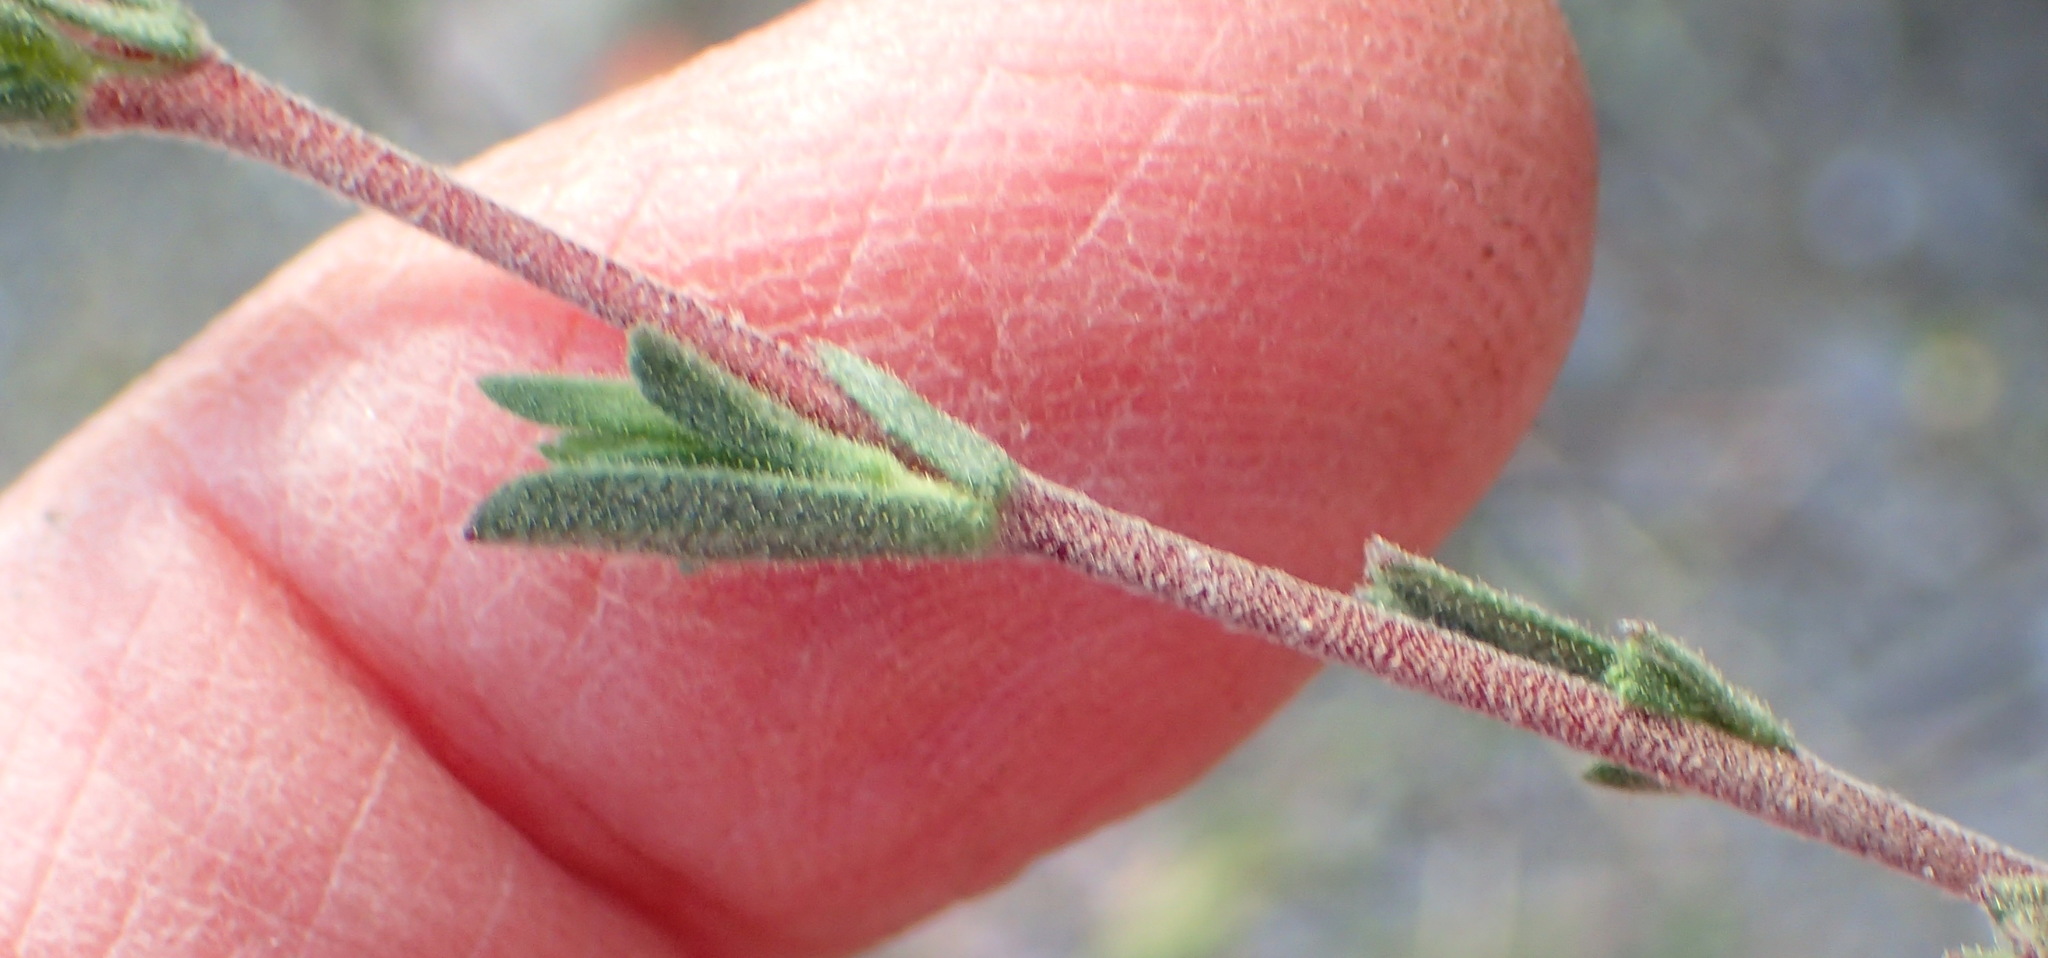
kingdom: Plantae
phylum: Tracheophyta
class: Magnoliopsida
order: Malvales
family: Malvaceae
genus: Hermannia
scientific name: Hermannia flammula
